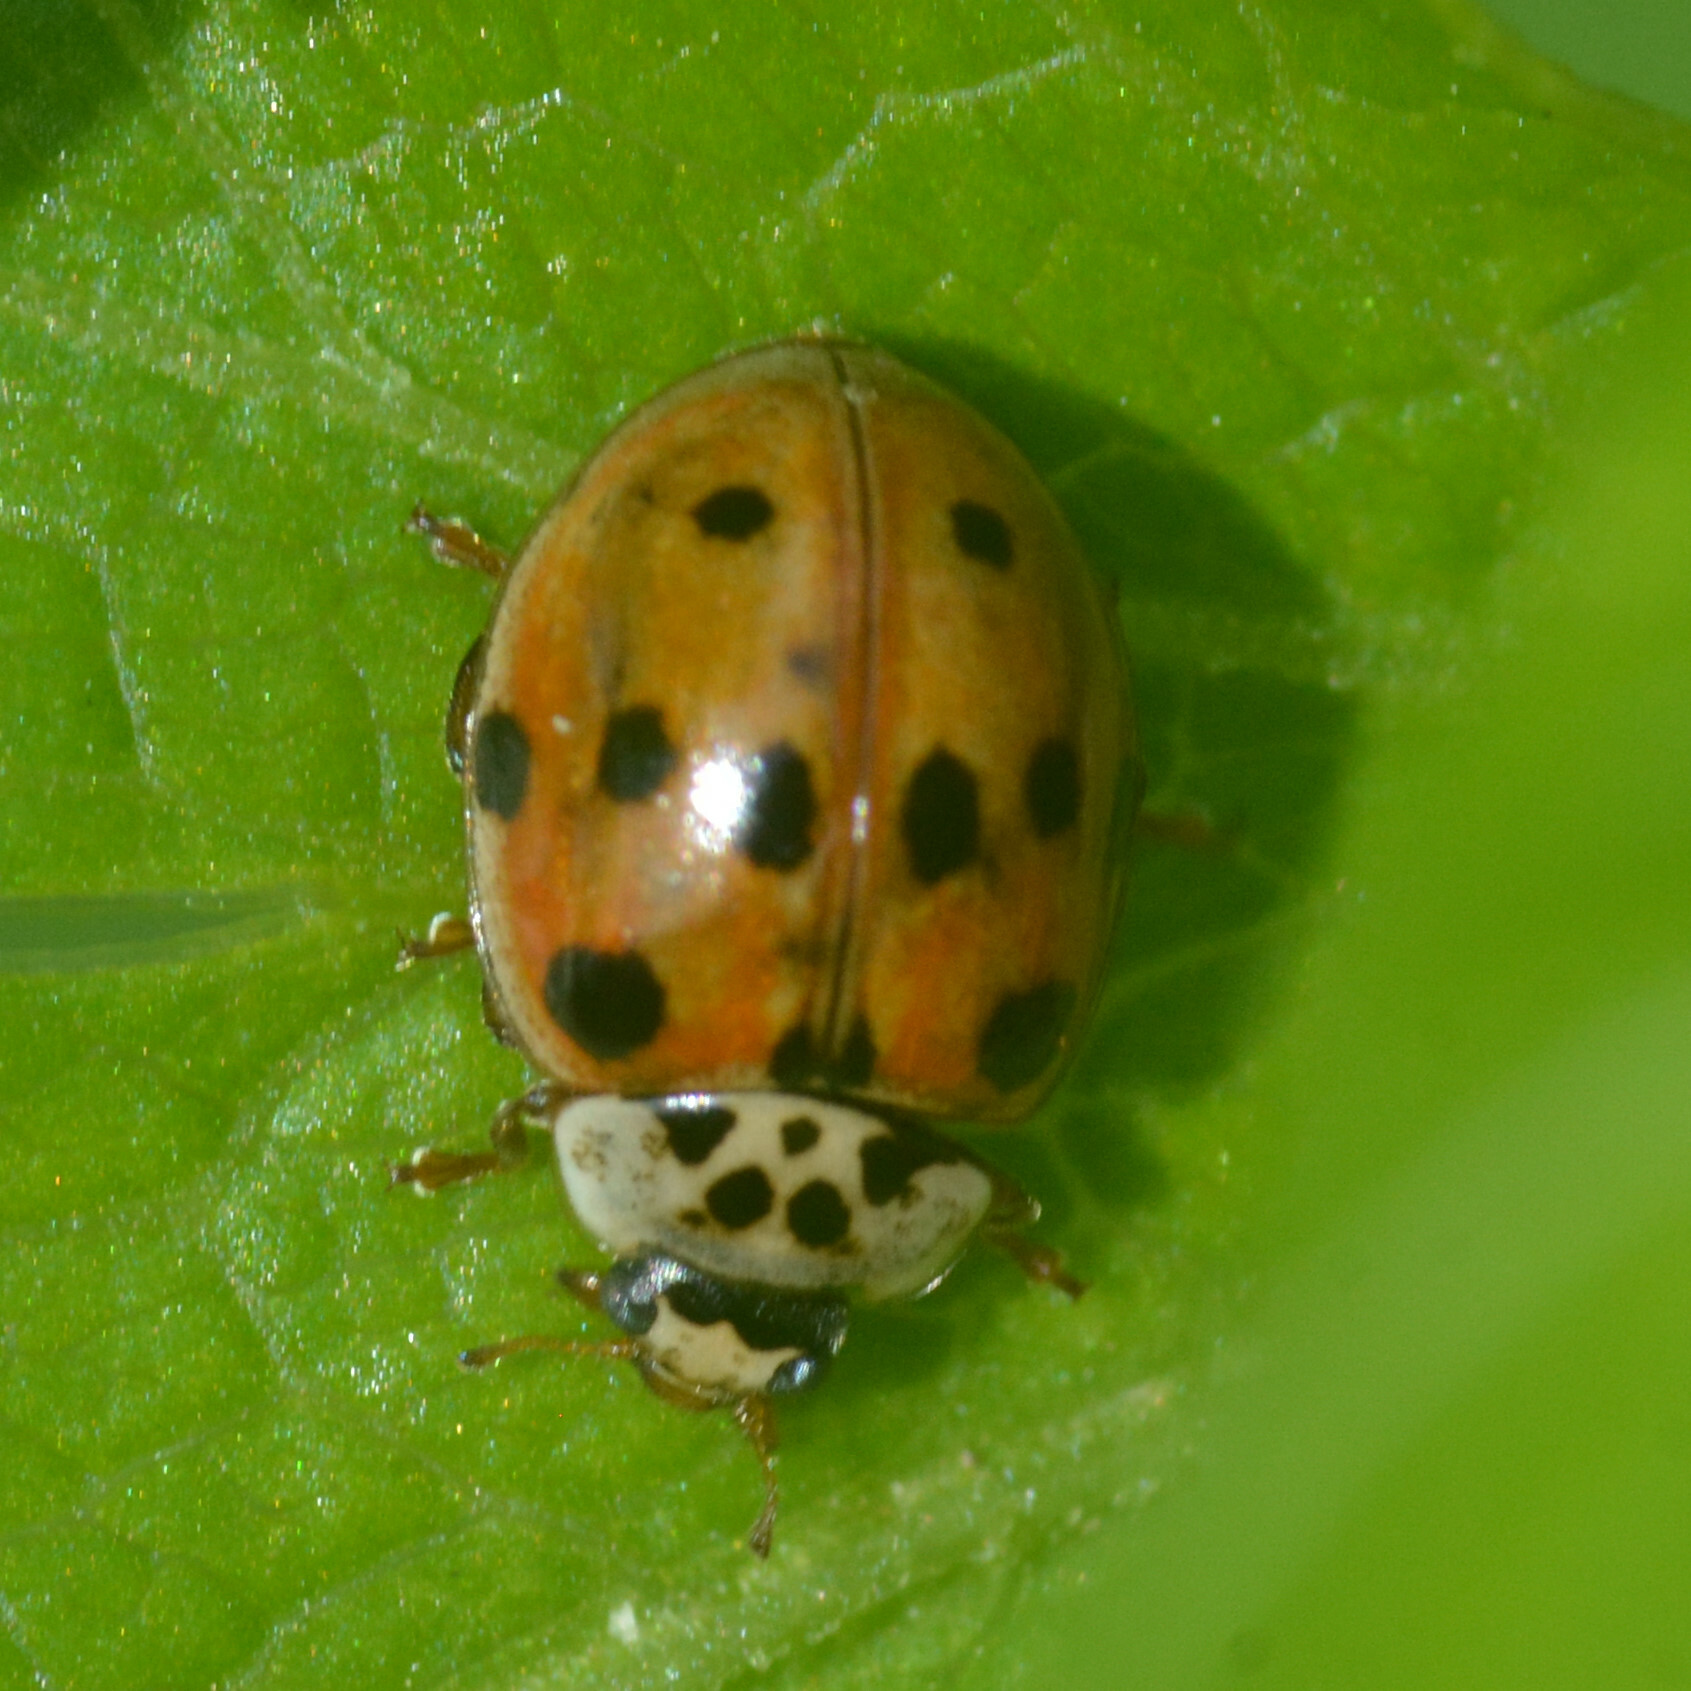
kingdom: Animalia
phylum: Arthropoda
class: Insecta
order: Coleoptera
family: Coccinellidae
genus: Adalia
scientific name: Adalia decempunctata
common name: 10-spot ladybird
